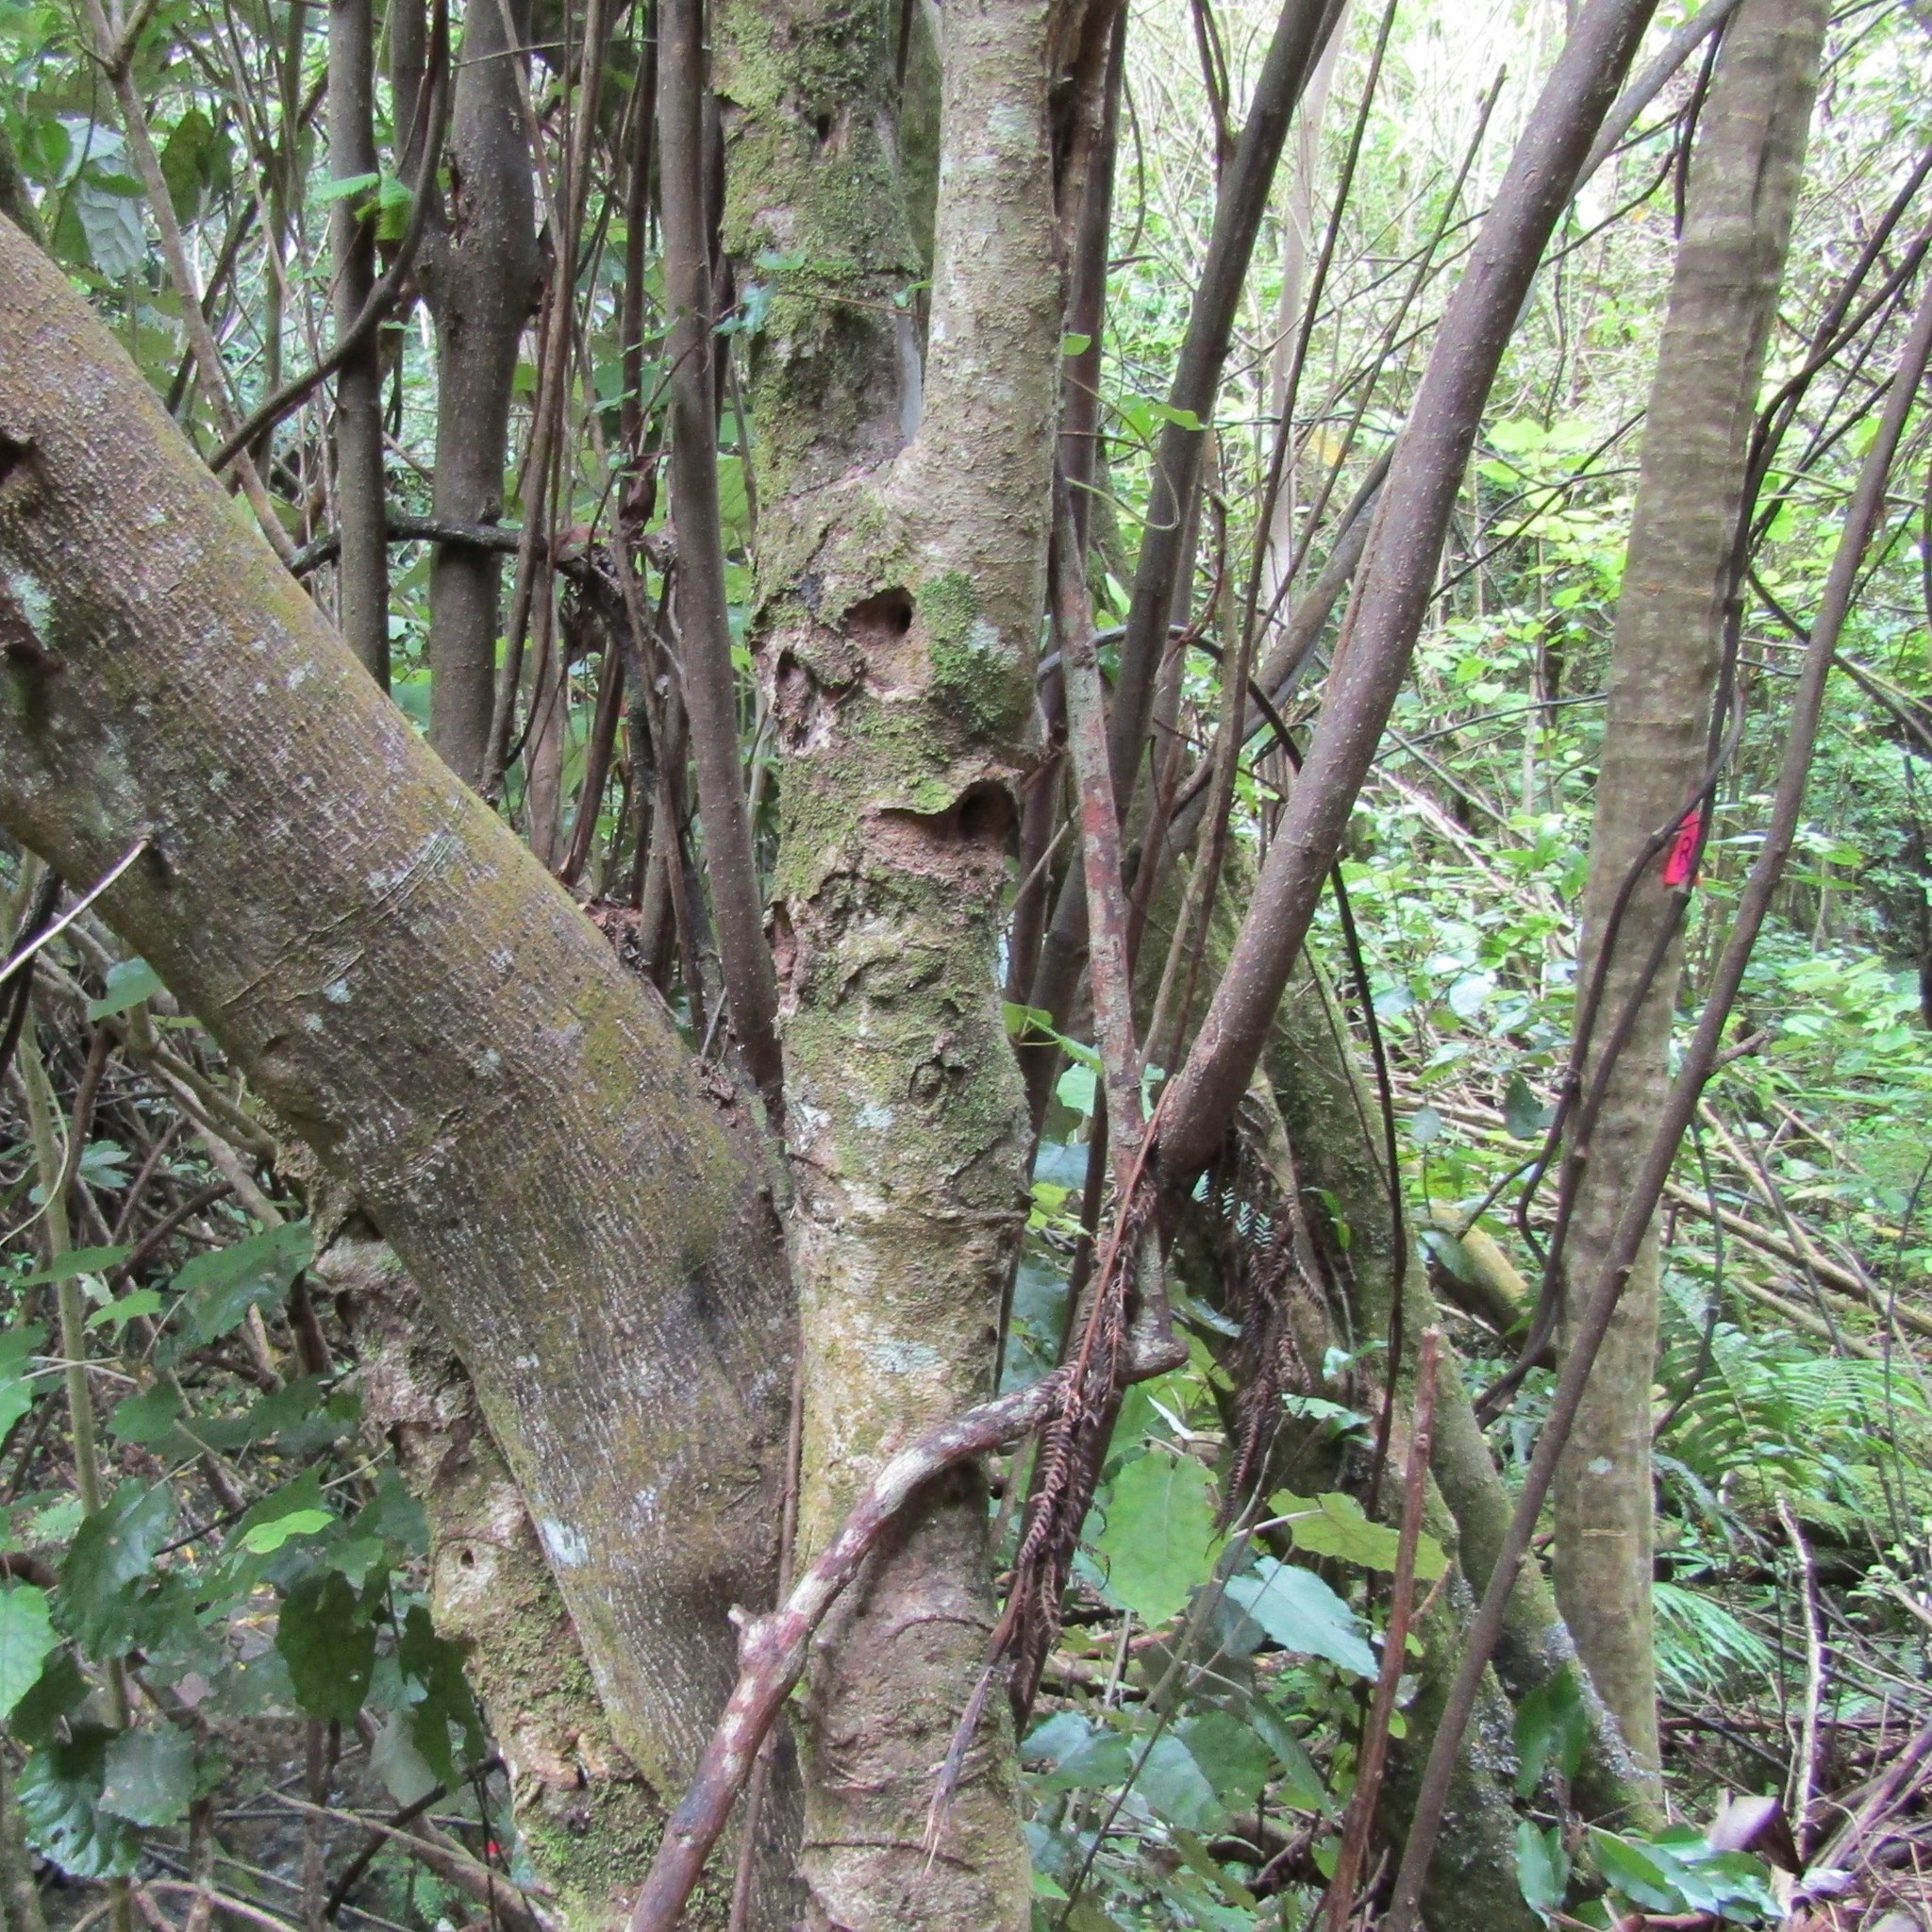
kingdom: Animalia
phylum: Arthropoda
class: Insecta
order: Lepidoptera
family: Hepialidae
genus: Aenetus
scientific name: Aenetus virescens
